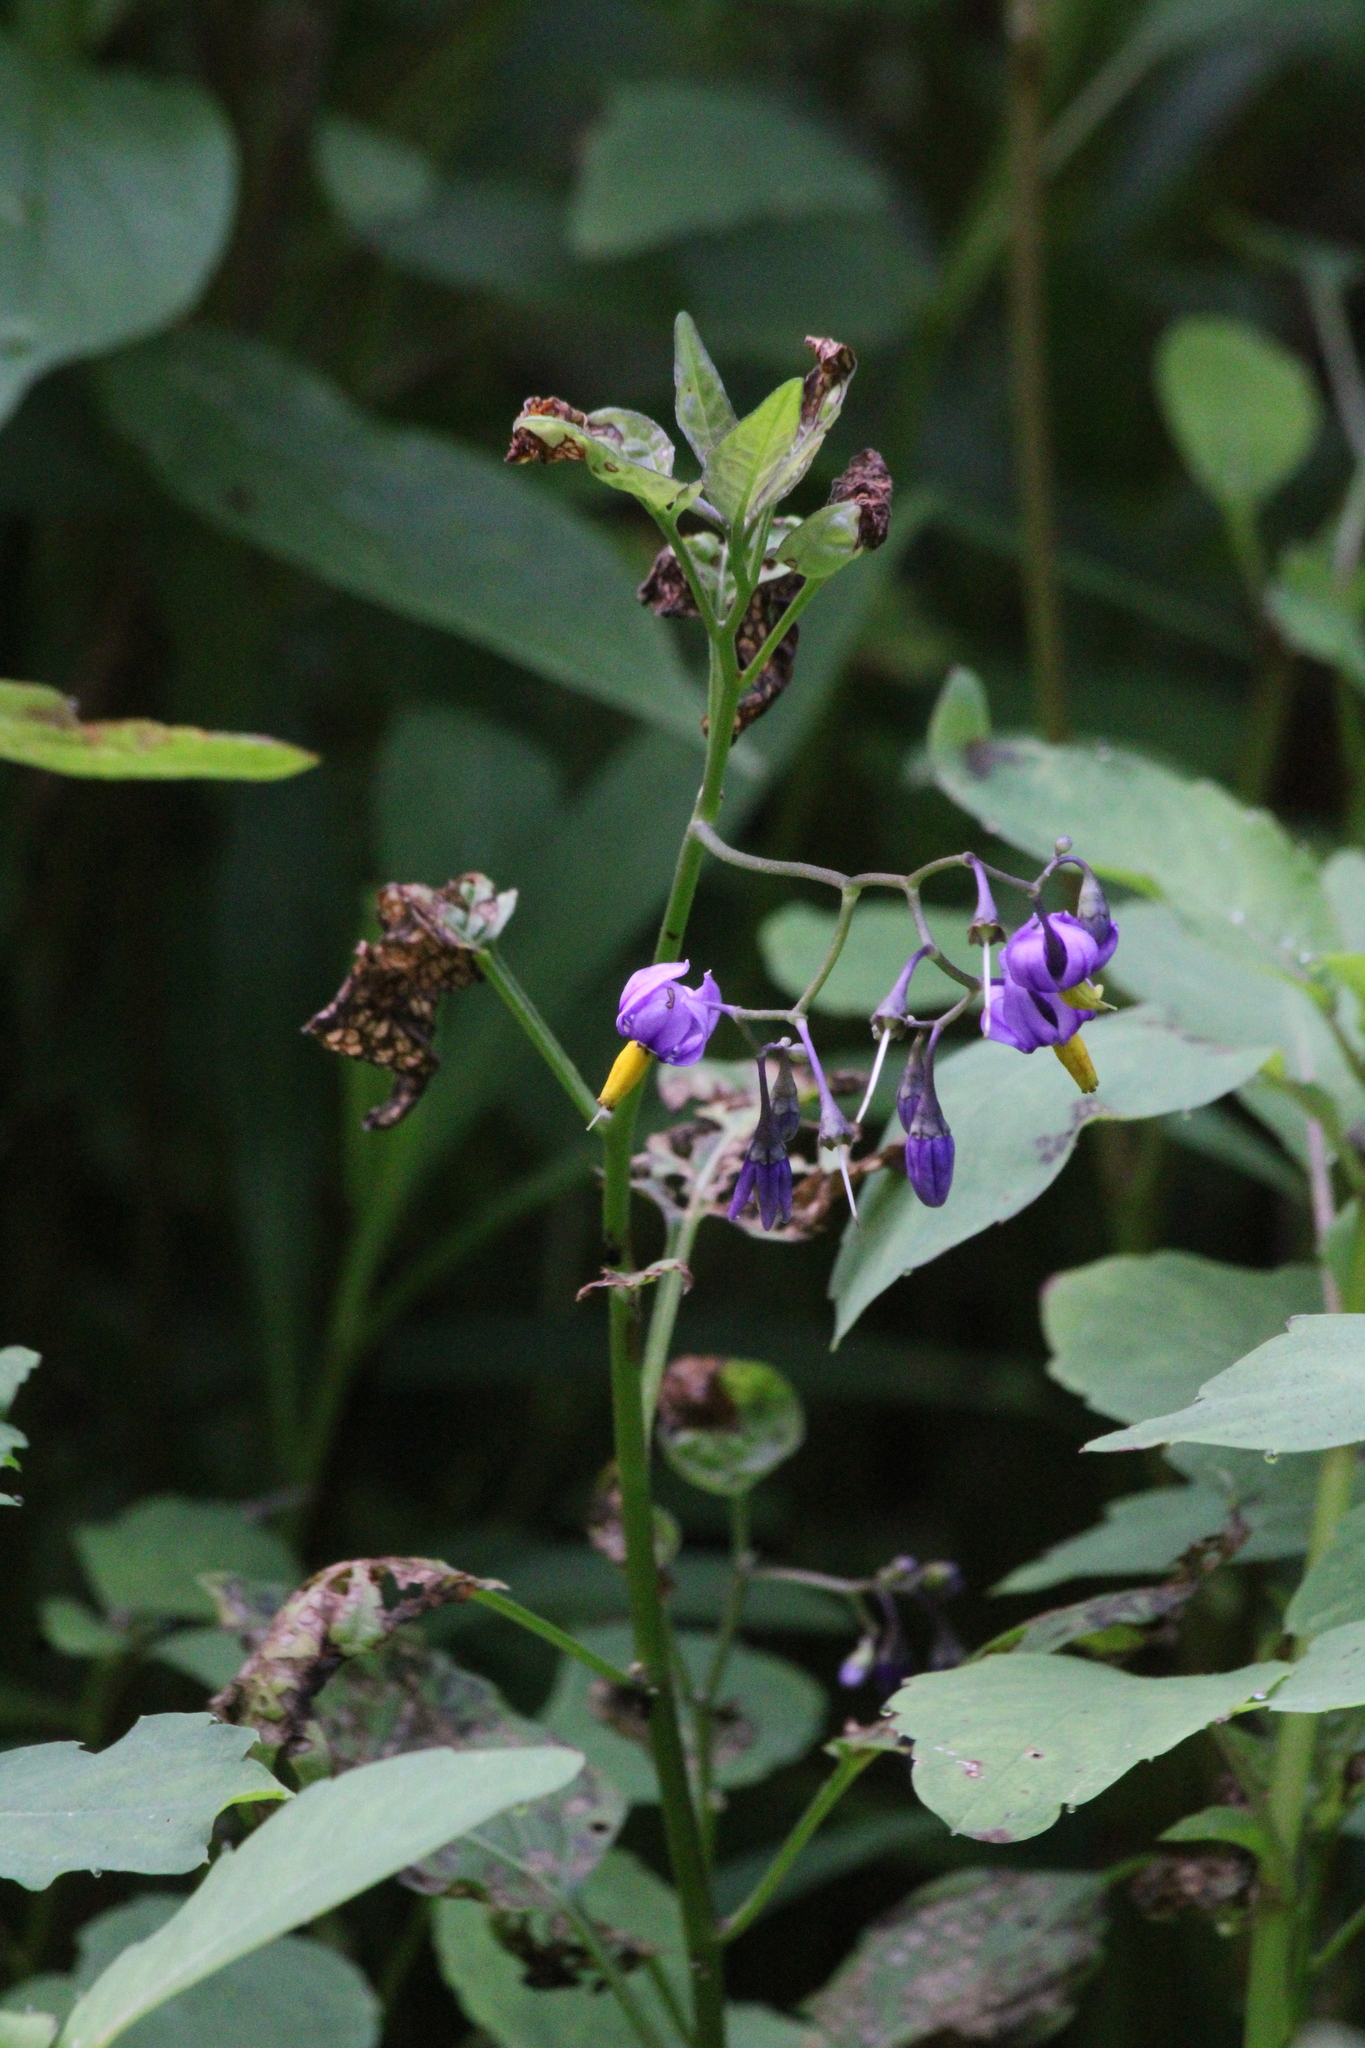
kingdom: Plantae
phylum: Tracheophyta
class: Magnoliopsida
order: Solanales
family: Solanaceae
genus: Solanum
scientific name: Solanum dulcamara
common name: Climbing nightshade
